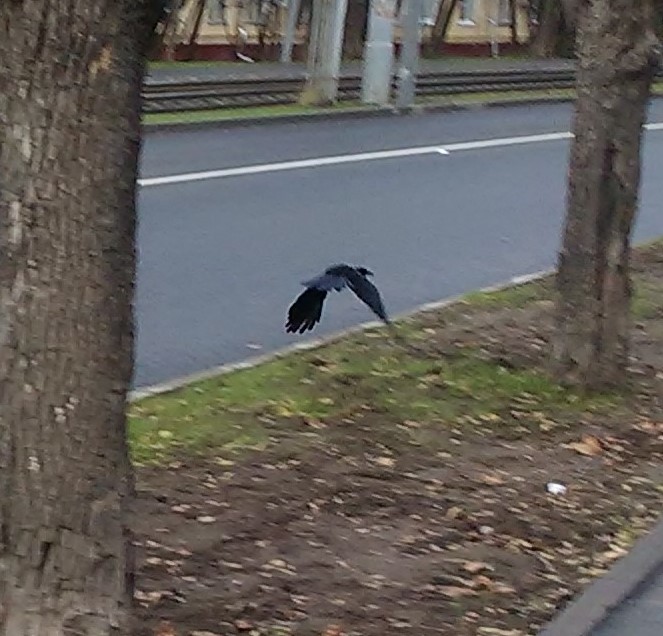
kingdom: Animalia
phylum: Chordata
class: Aves
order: Passeriformes
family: Corvidae
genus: Corvus
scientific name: Corvus frugilegus
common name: Rook
